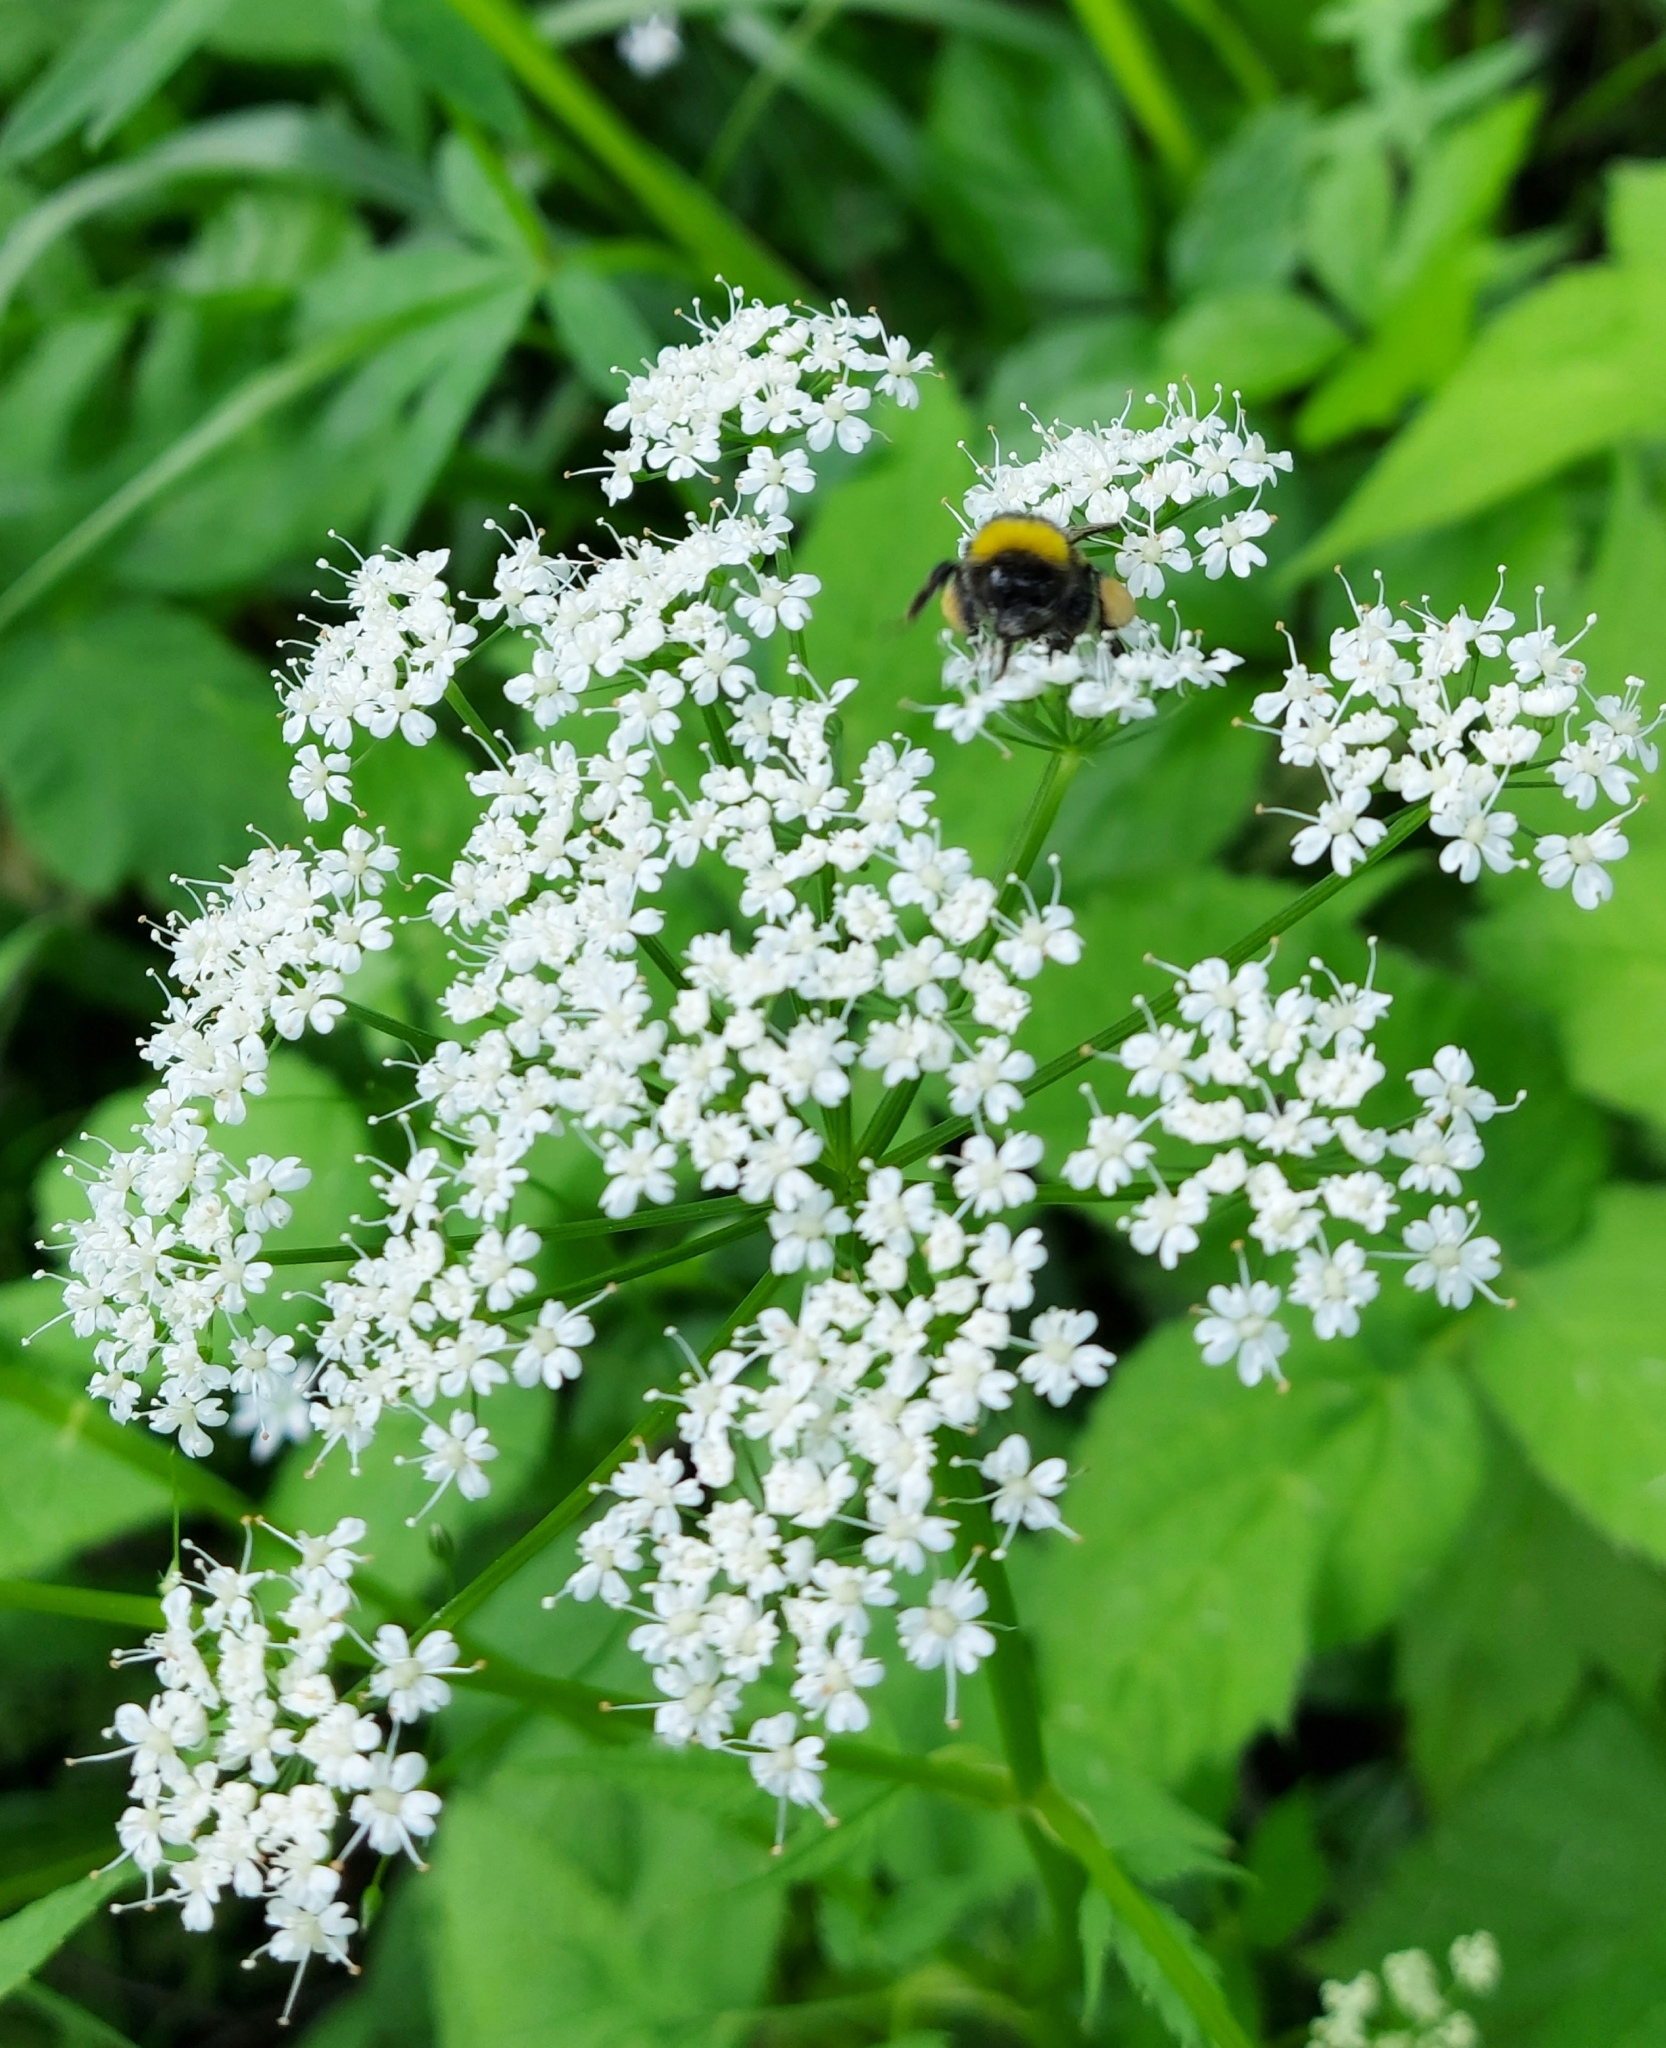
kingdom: Plantae
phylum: Tracheophyta
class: Magnoliopsida
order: Apiales
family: Apiaceae
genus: Aegopodium
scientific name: Aegopodium podagraria
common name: Ground-elder
